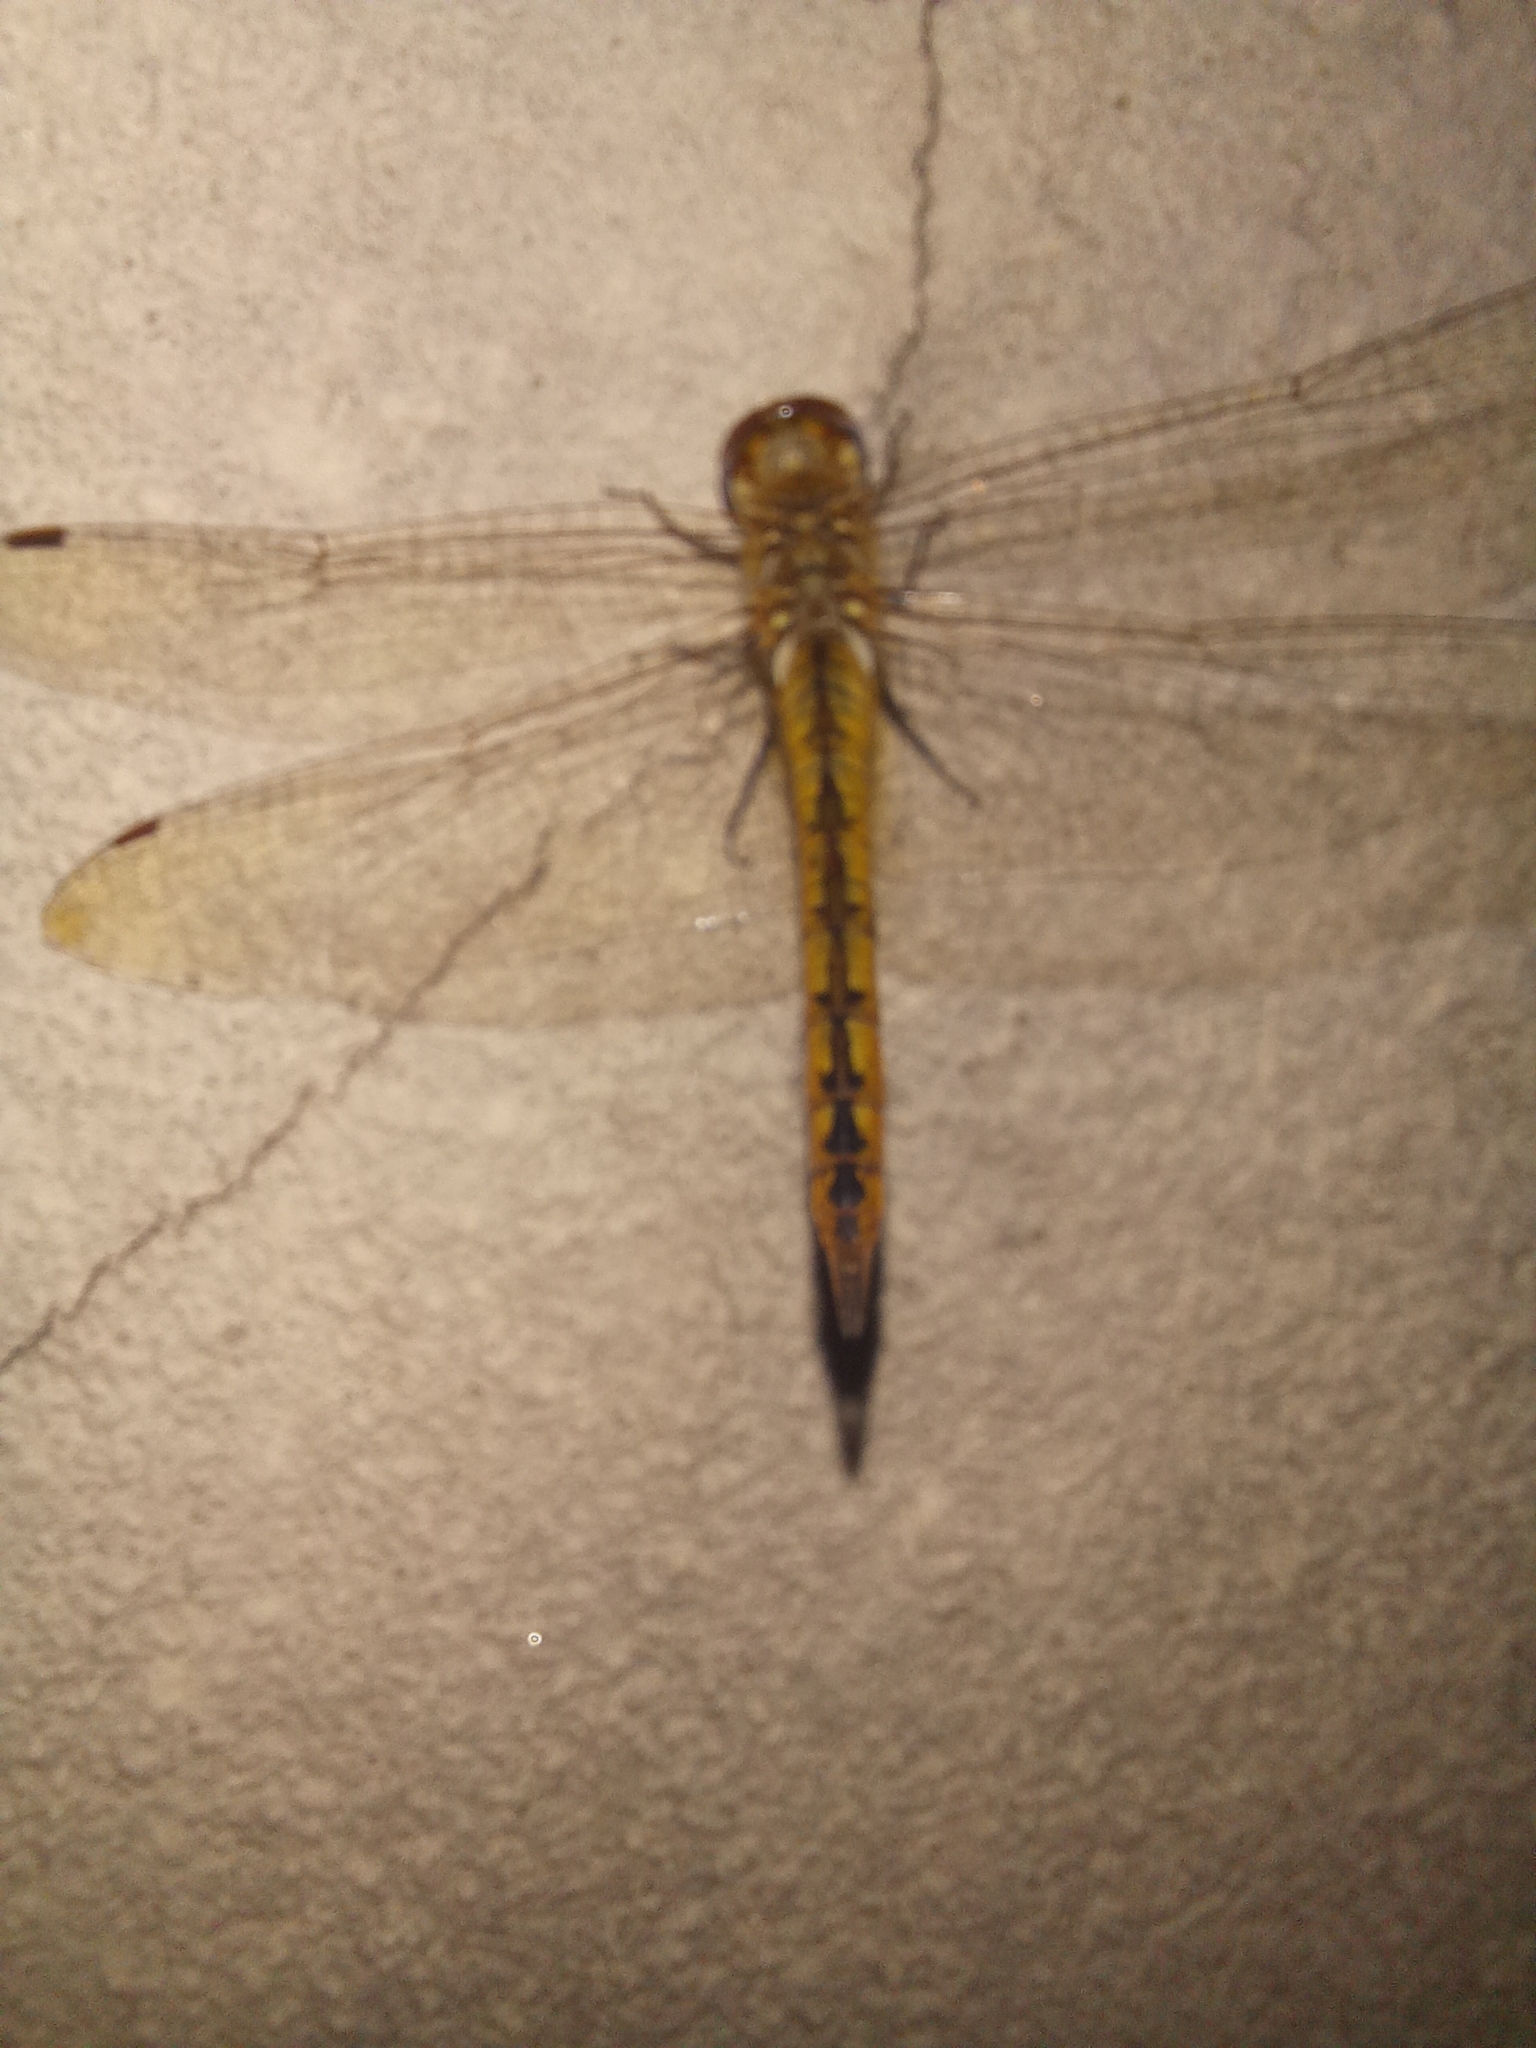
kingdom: Animalia
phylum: Arthropoda
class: Insecta
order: Odonata
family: Libellulidae
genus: Pantala
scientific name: Pantala flavescens
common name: Wandering glider
